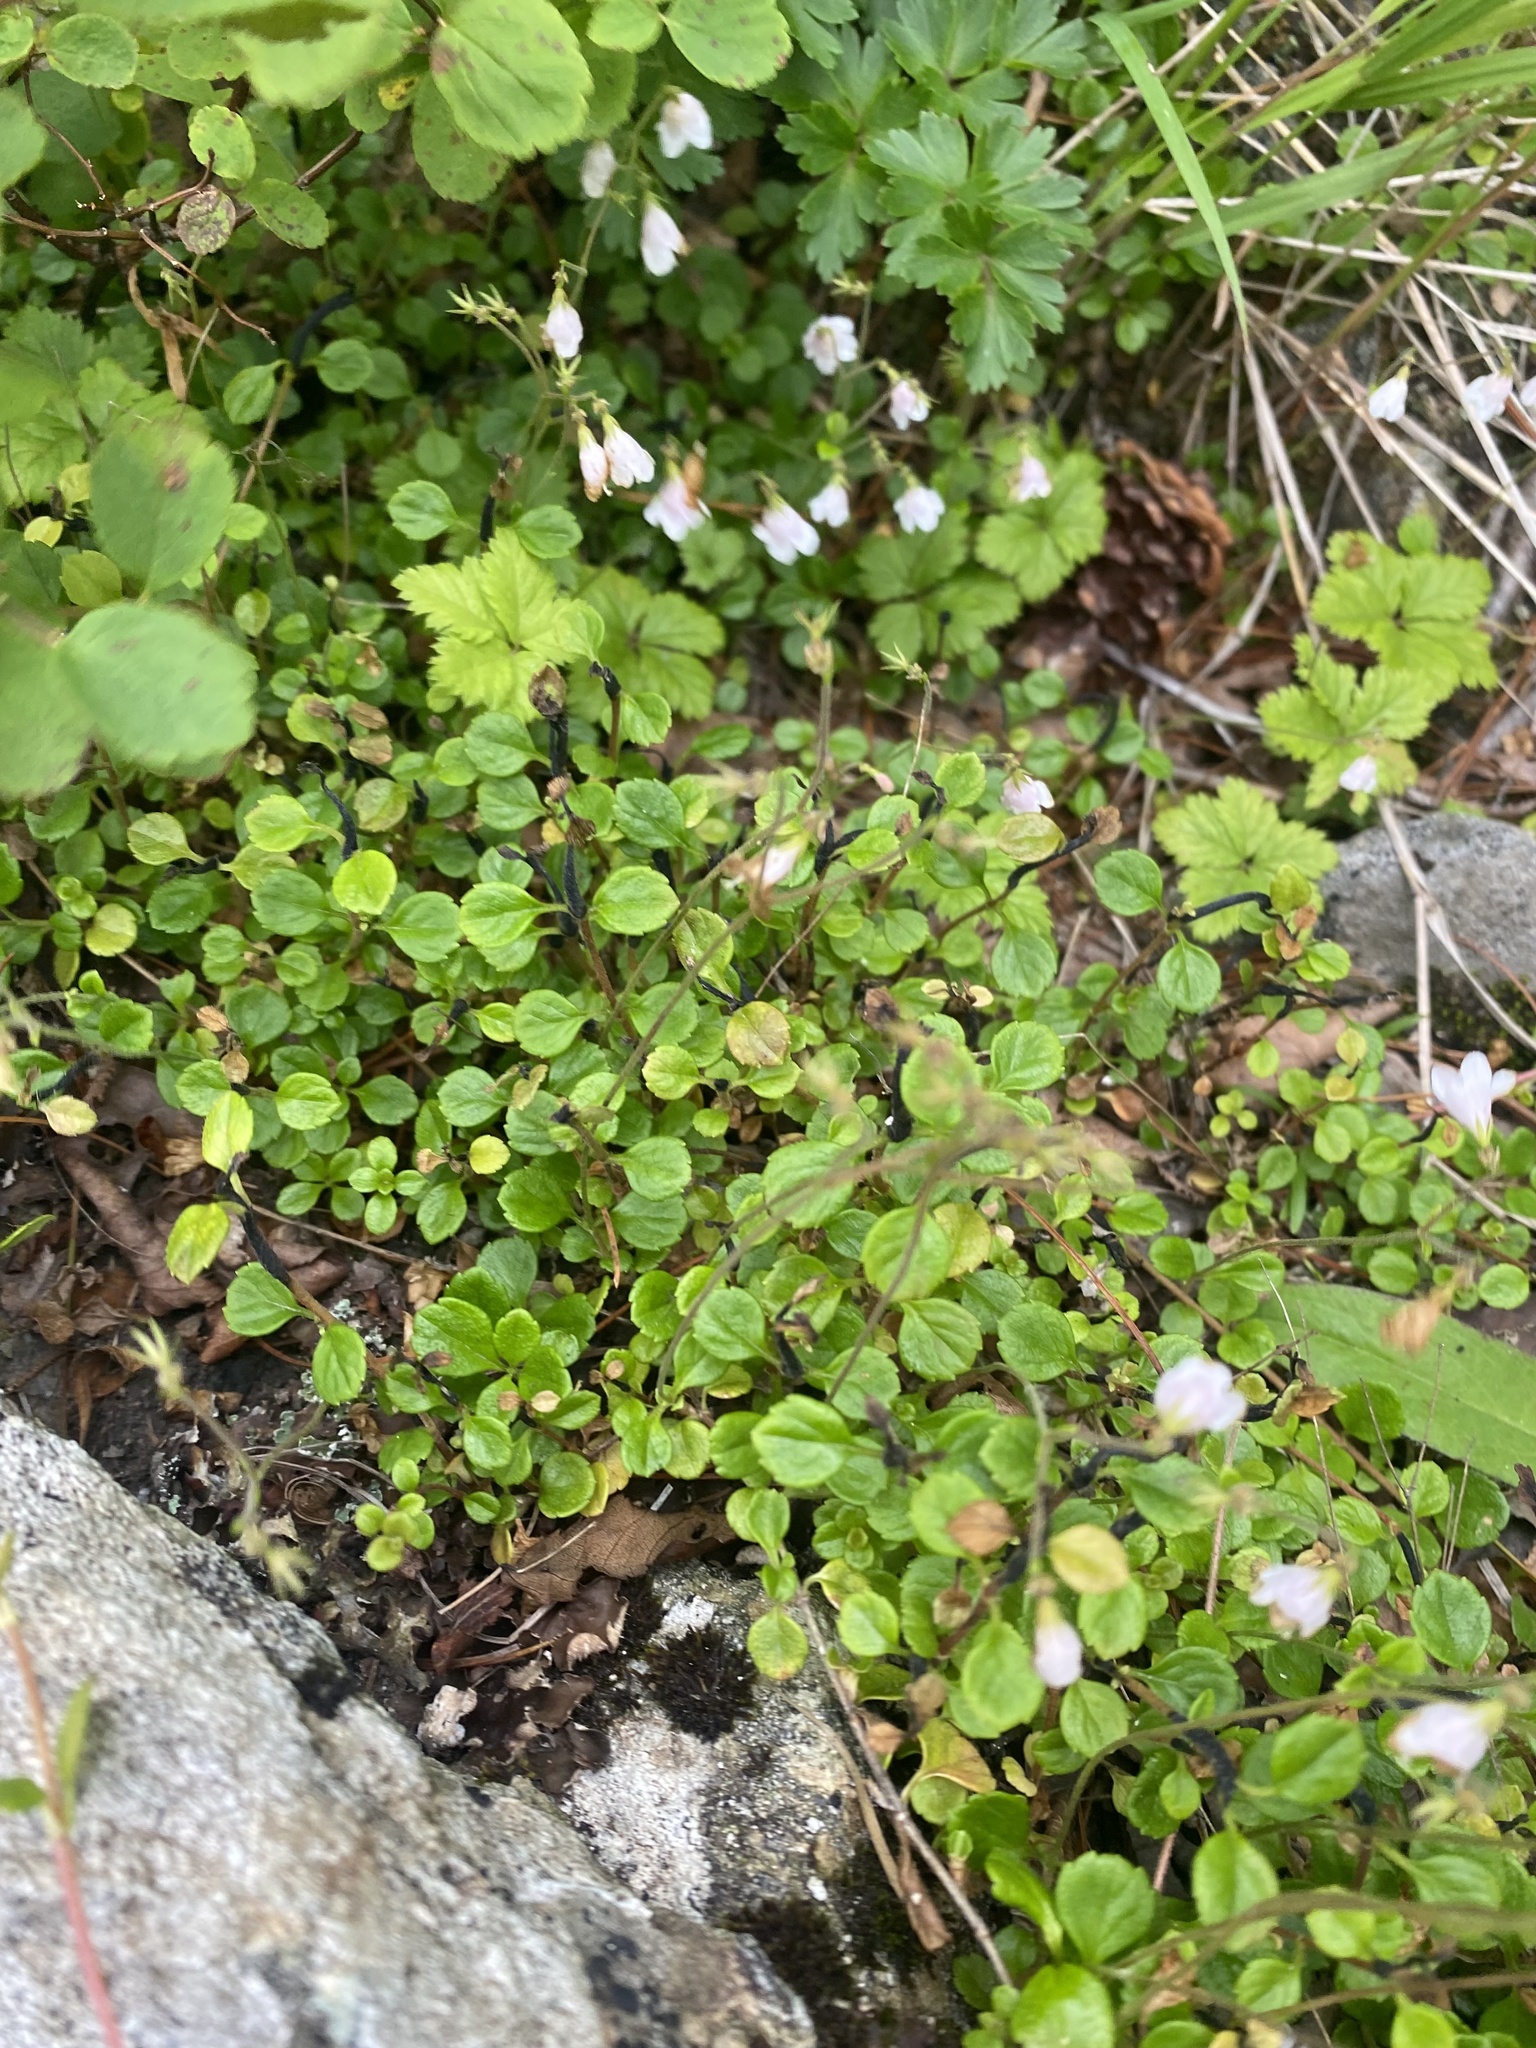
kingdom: Plantae
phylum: Tracheophyta
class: Magnoliopsida
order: Dipsacales
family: Caprifoliaceae
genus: Linnaea
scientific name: Linnaea borealis
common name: Twinflower
